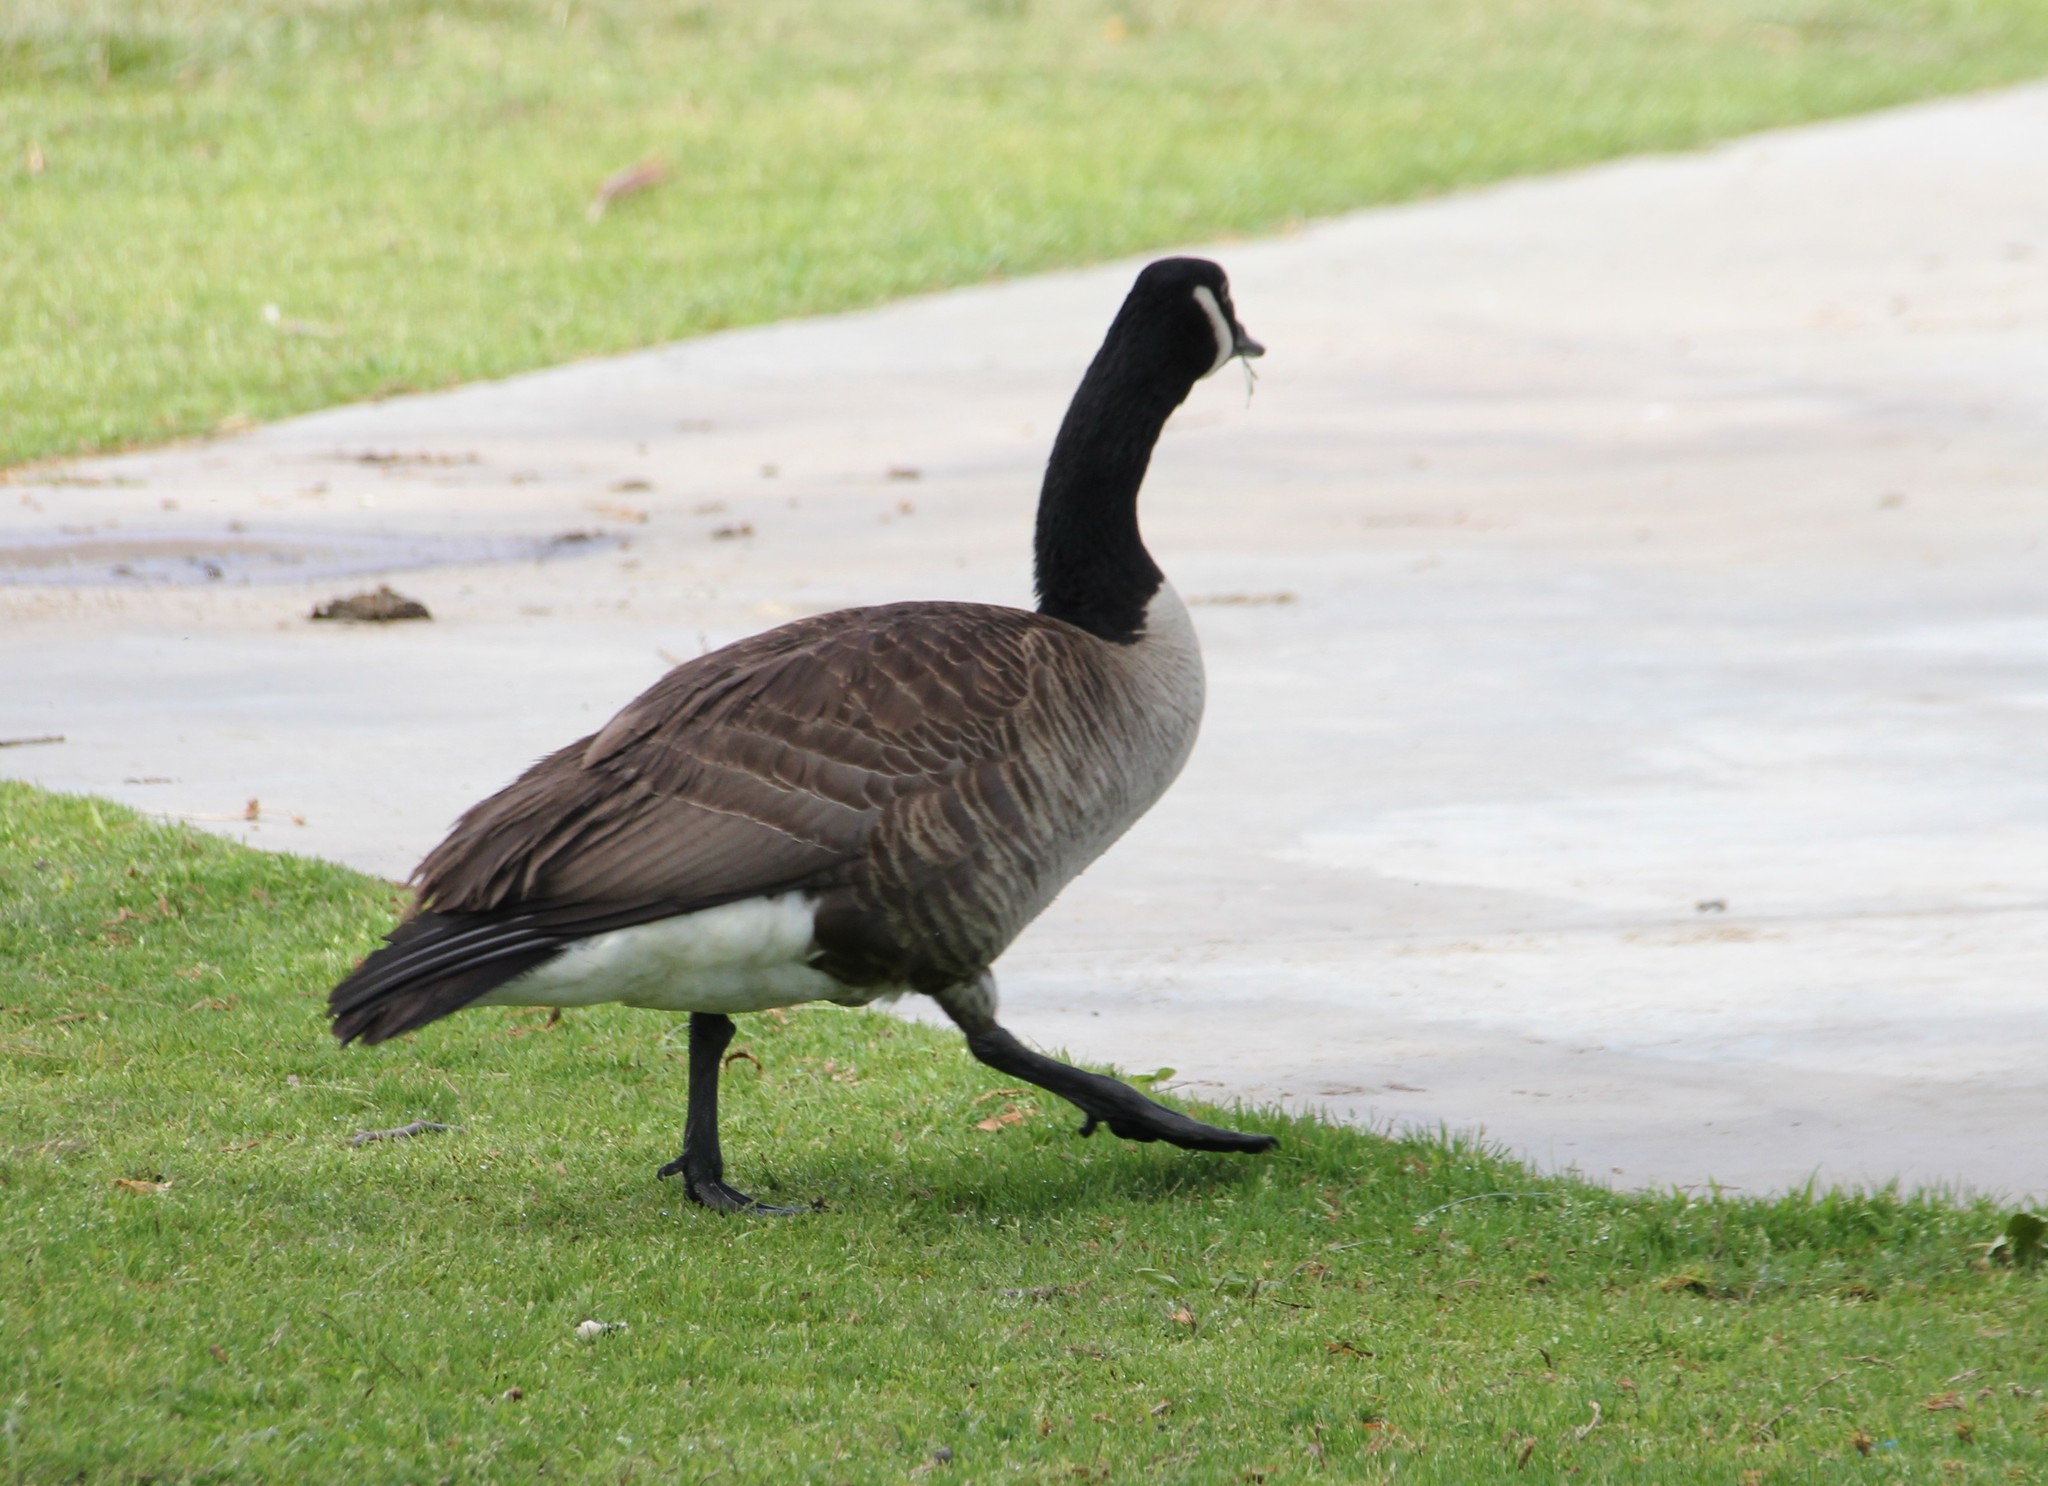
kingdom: Animalia
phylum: Chordata
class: Aves
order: Anseriformes
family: Anatidae
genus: Branta
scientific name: Branta canadensis
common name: Canada goose
